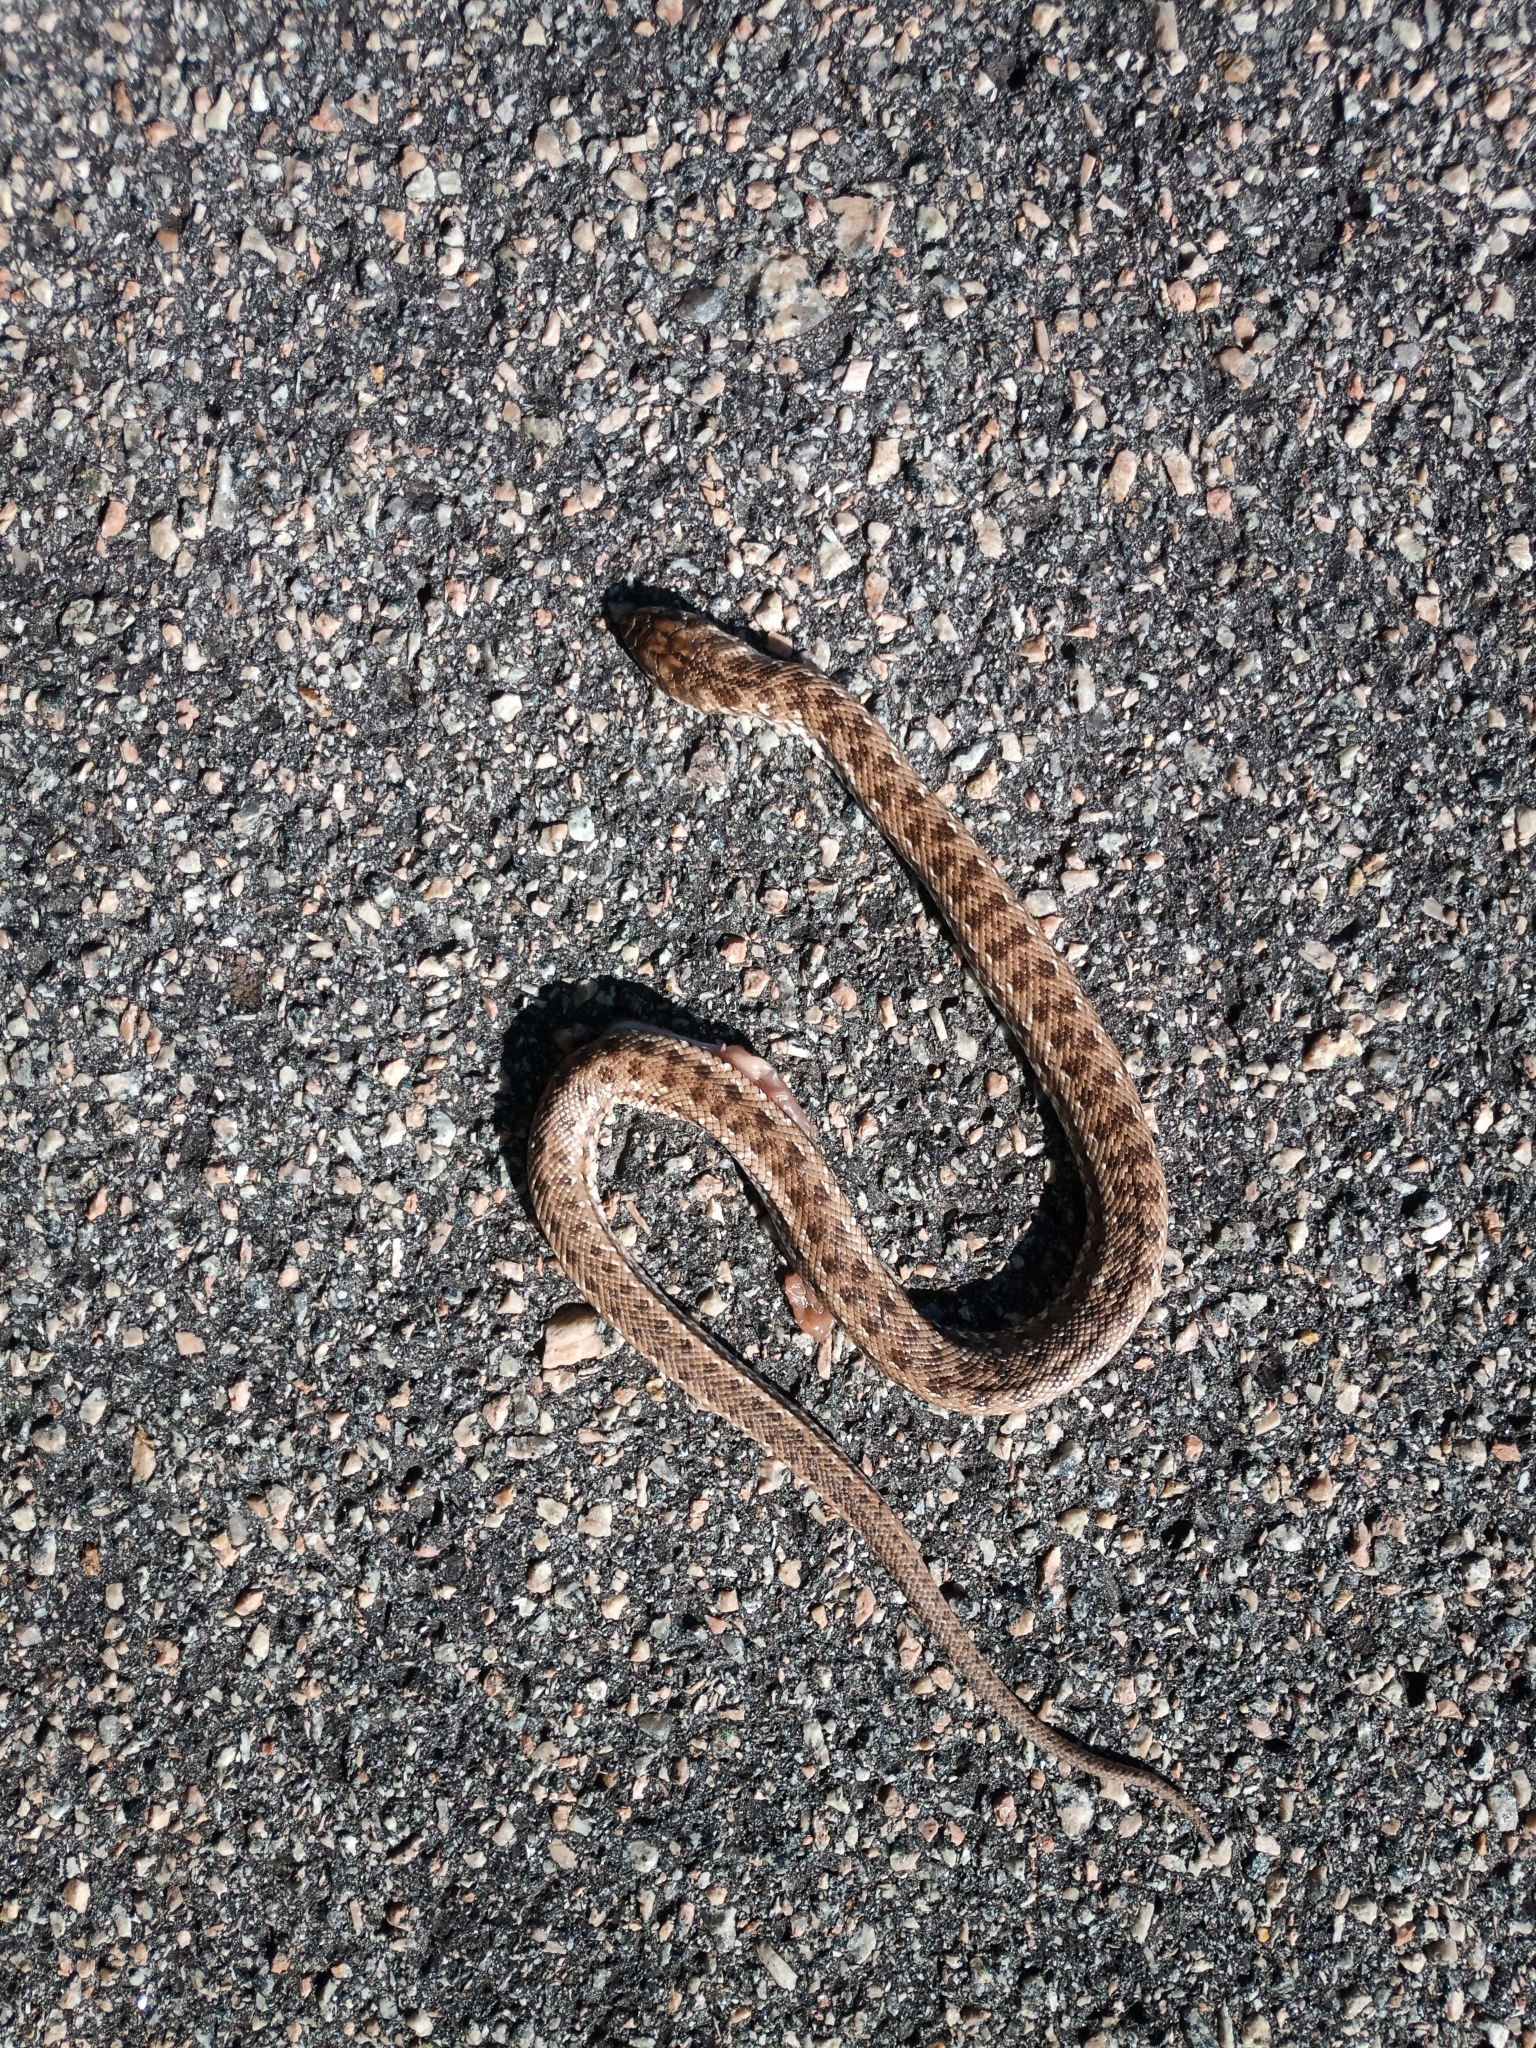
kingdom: Animalia
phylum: Chordata
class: Squamata
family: Pseudaspididae
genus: Pseudaspis
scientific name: Pseudaspis cana
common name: Mole snake
